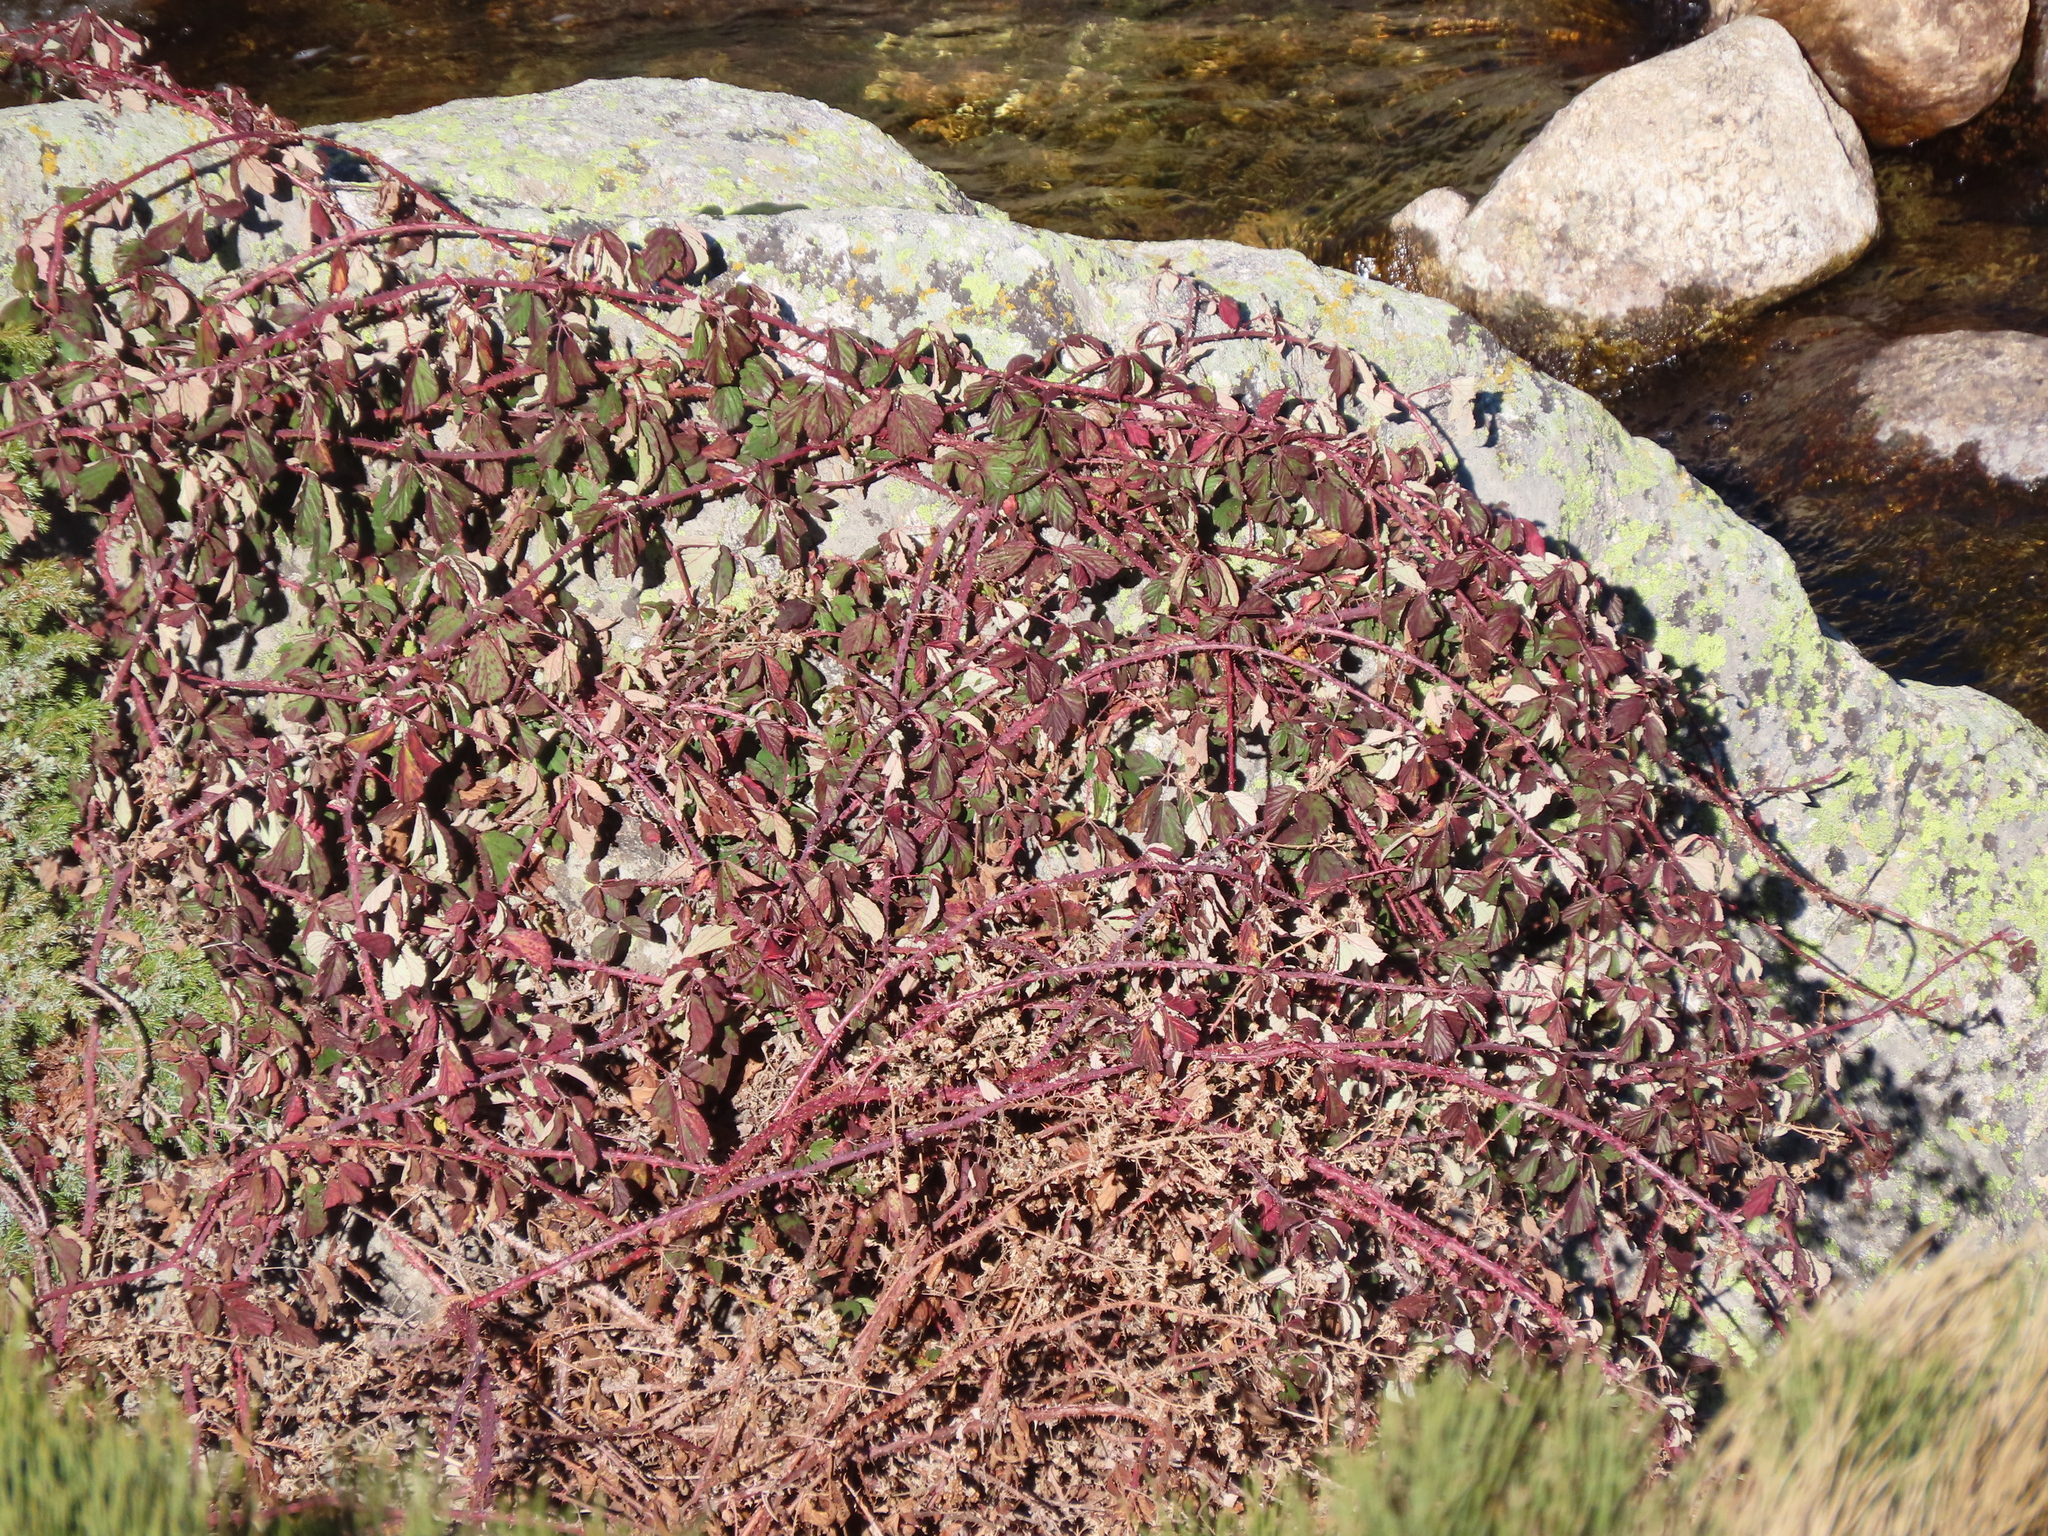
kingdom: Plantae
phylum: Tracheophyta
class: Magnoliopsida
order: Rosales
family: Rosaceae
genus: Rubus
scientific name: Rubus carpetanus
